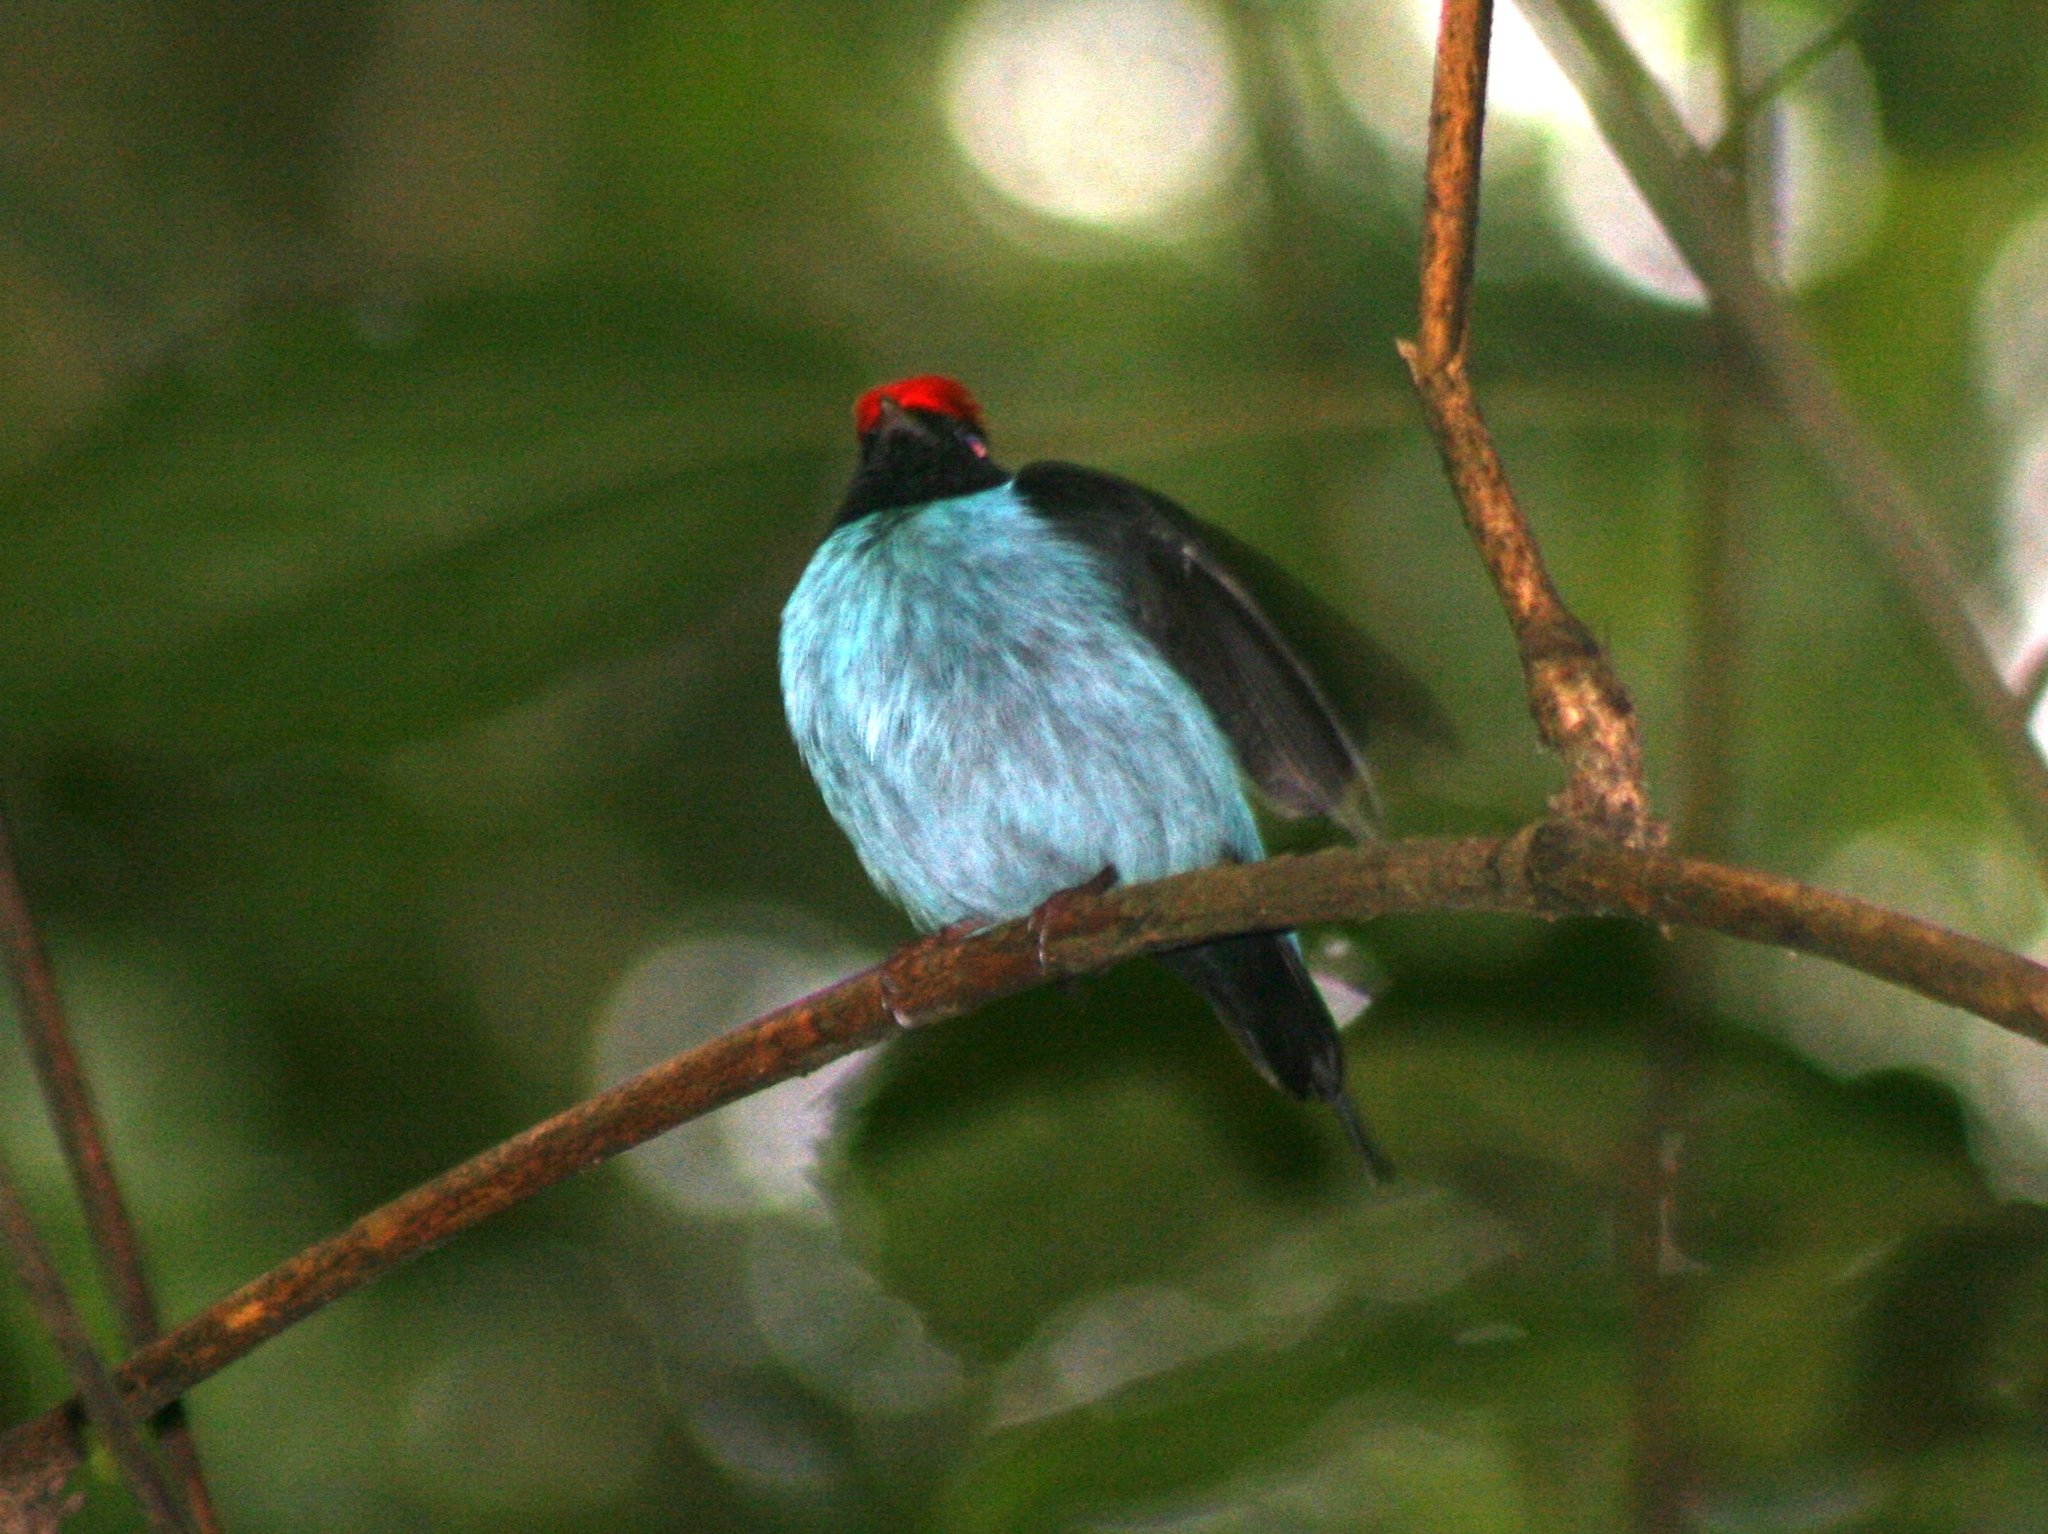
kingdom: Animalia
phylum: Chordata
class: Aves
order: Passeriformes
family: Pipridae
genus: Chiroxiphia
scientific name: Chiroxiphia caudata
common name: Blue manakin
